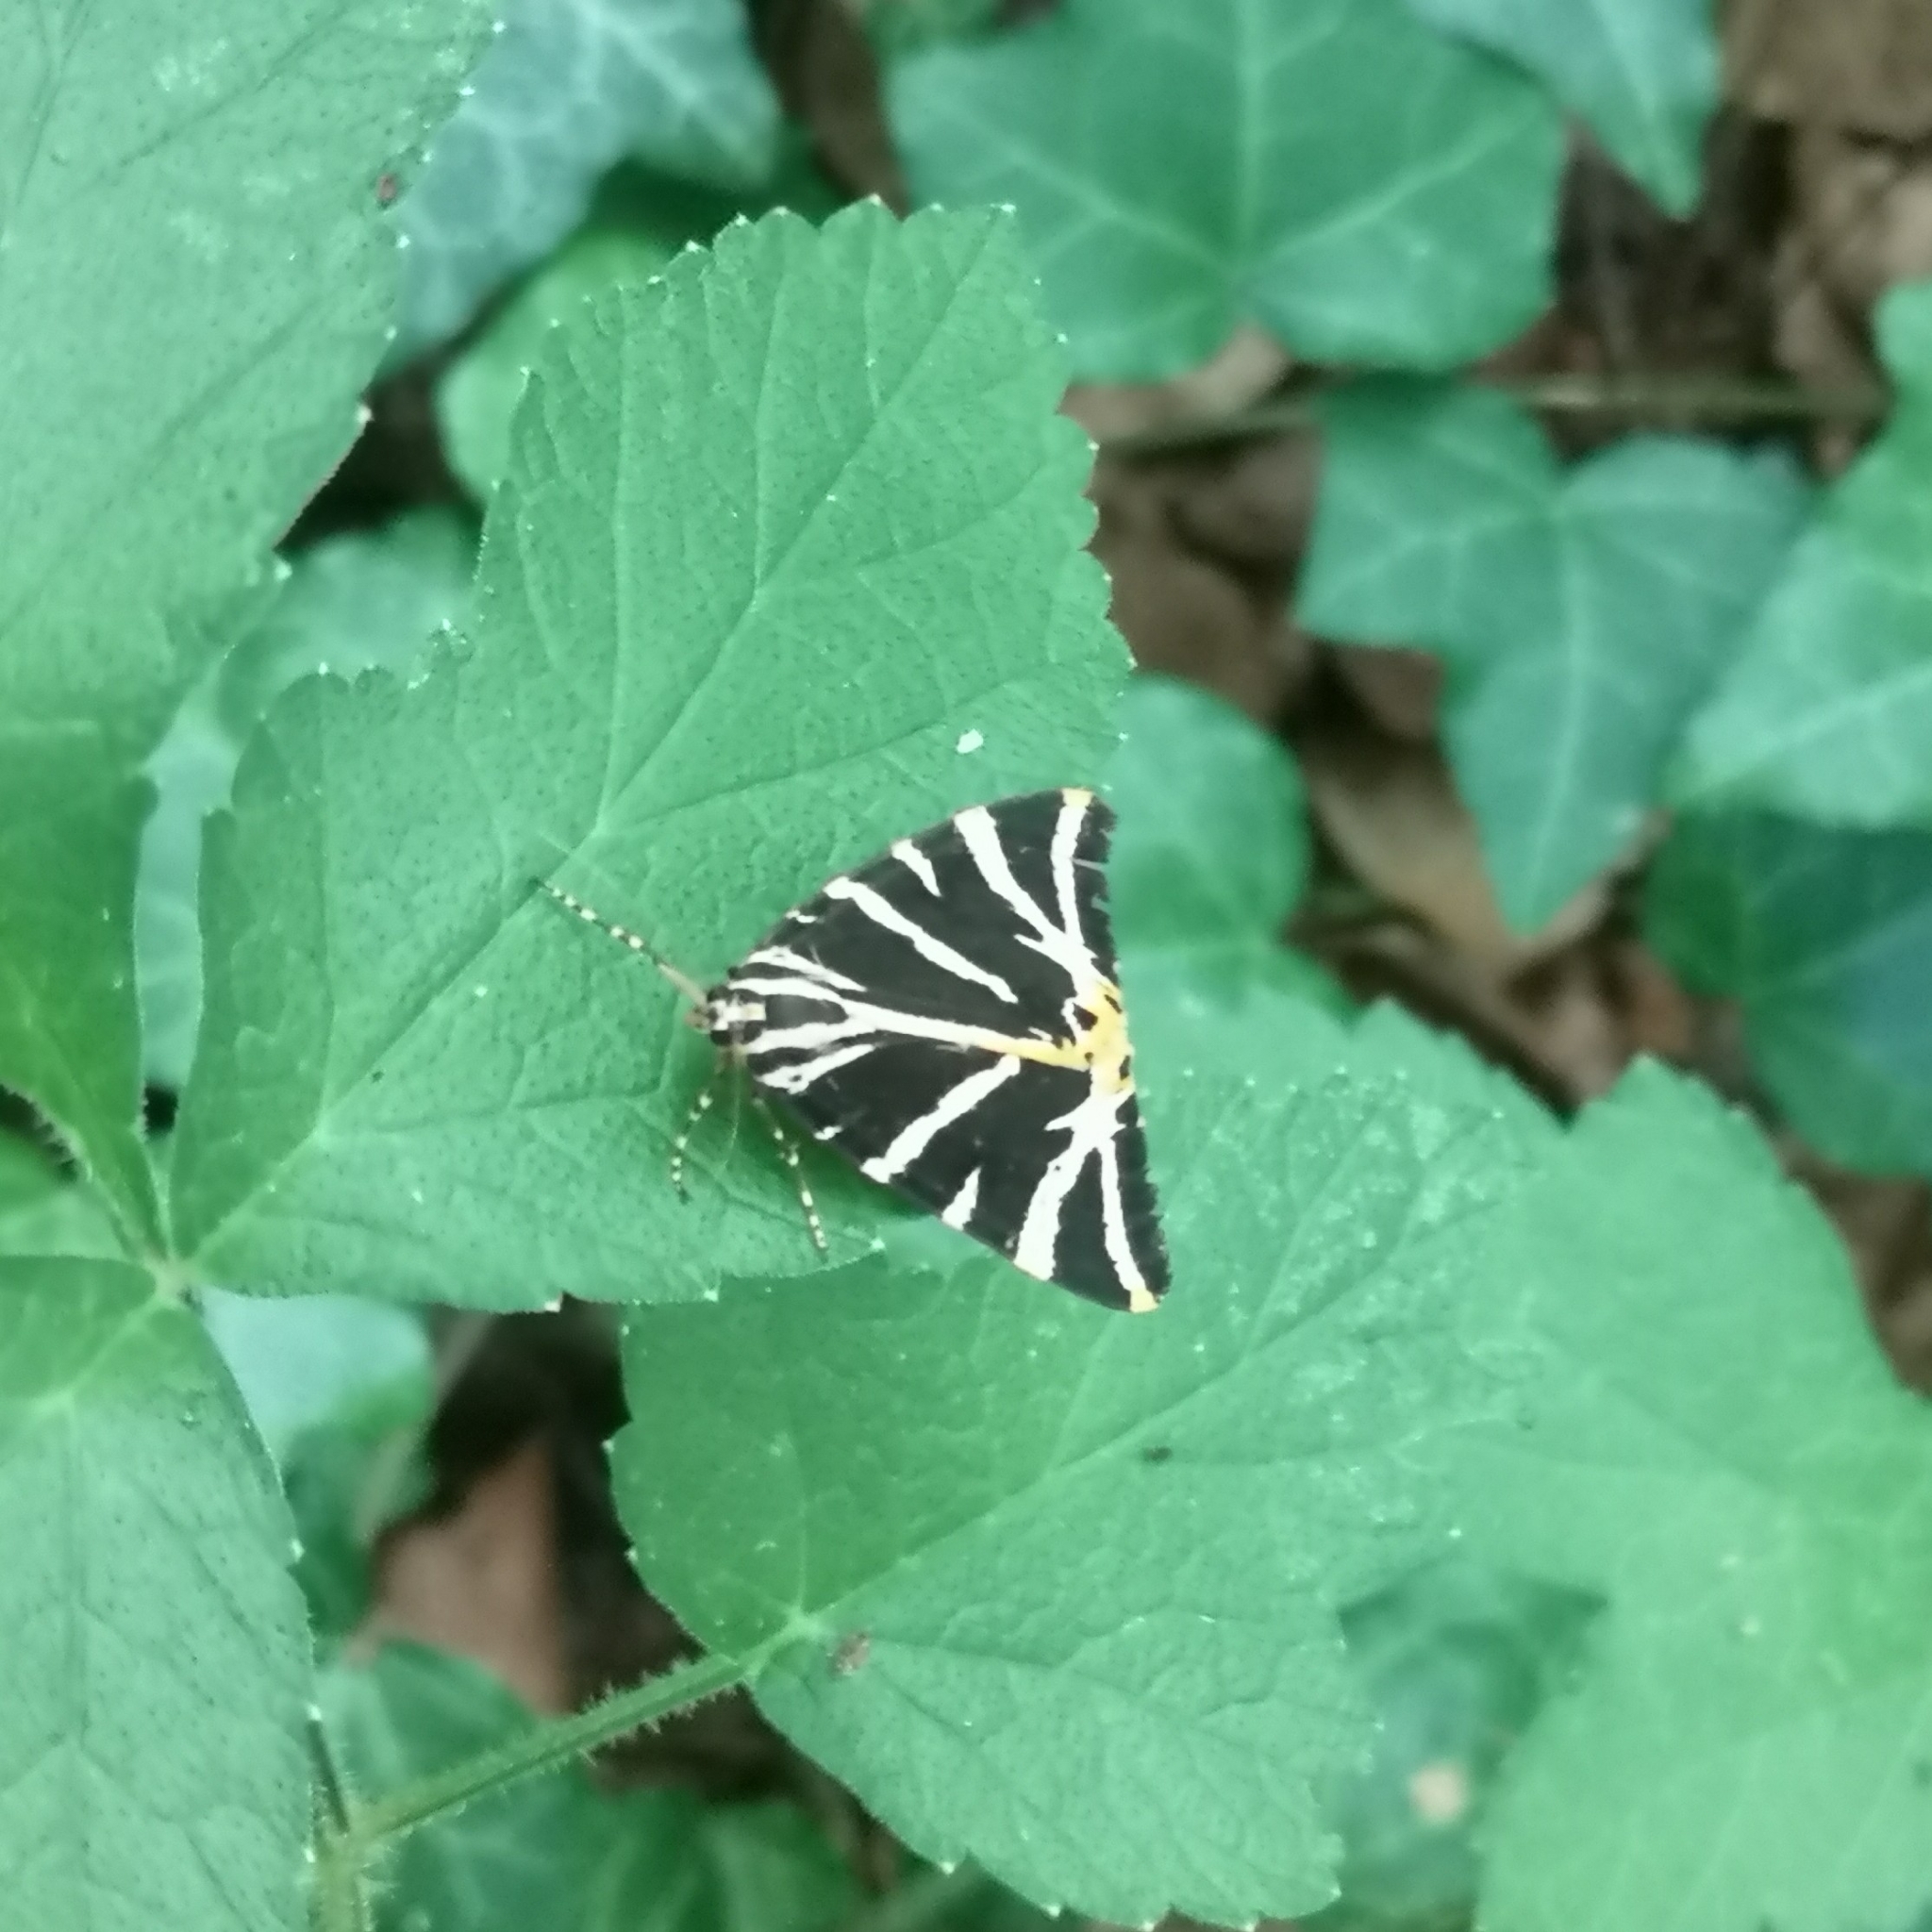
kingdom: Animalia
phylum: Arthropoda
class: Insecta
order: Lepidoptera
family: Erebidae
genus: Euplagia
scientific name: Euplagia quadripunctaria
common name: Jersey tiger
